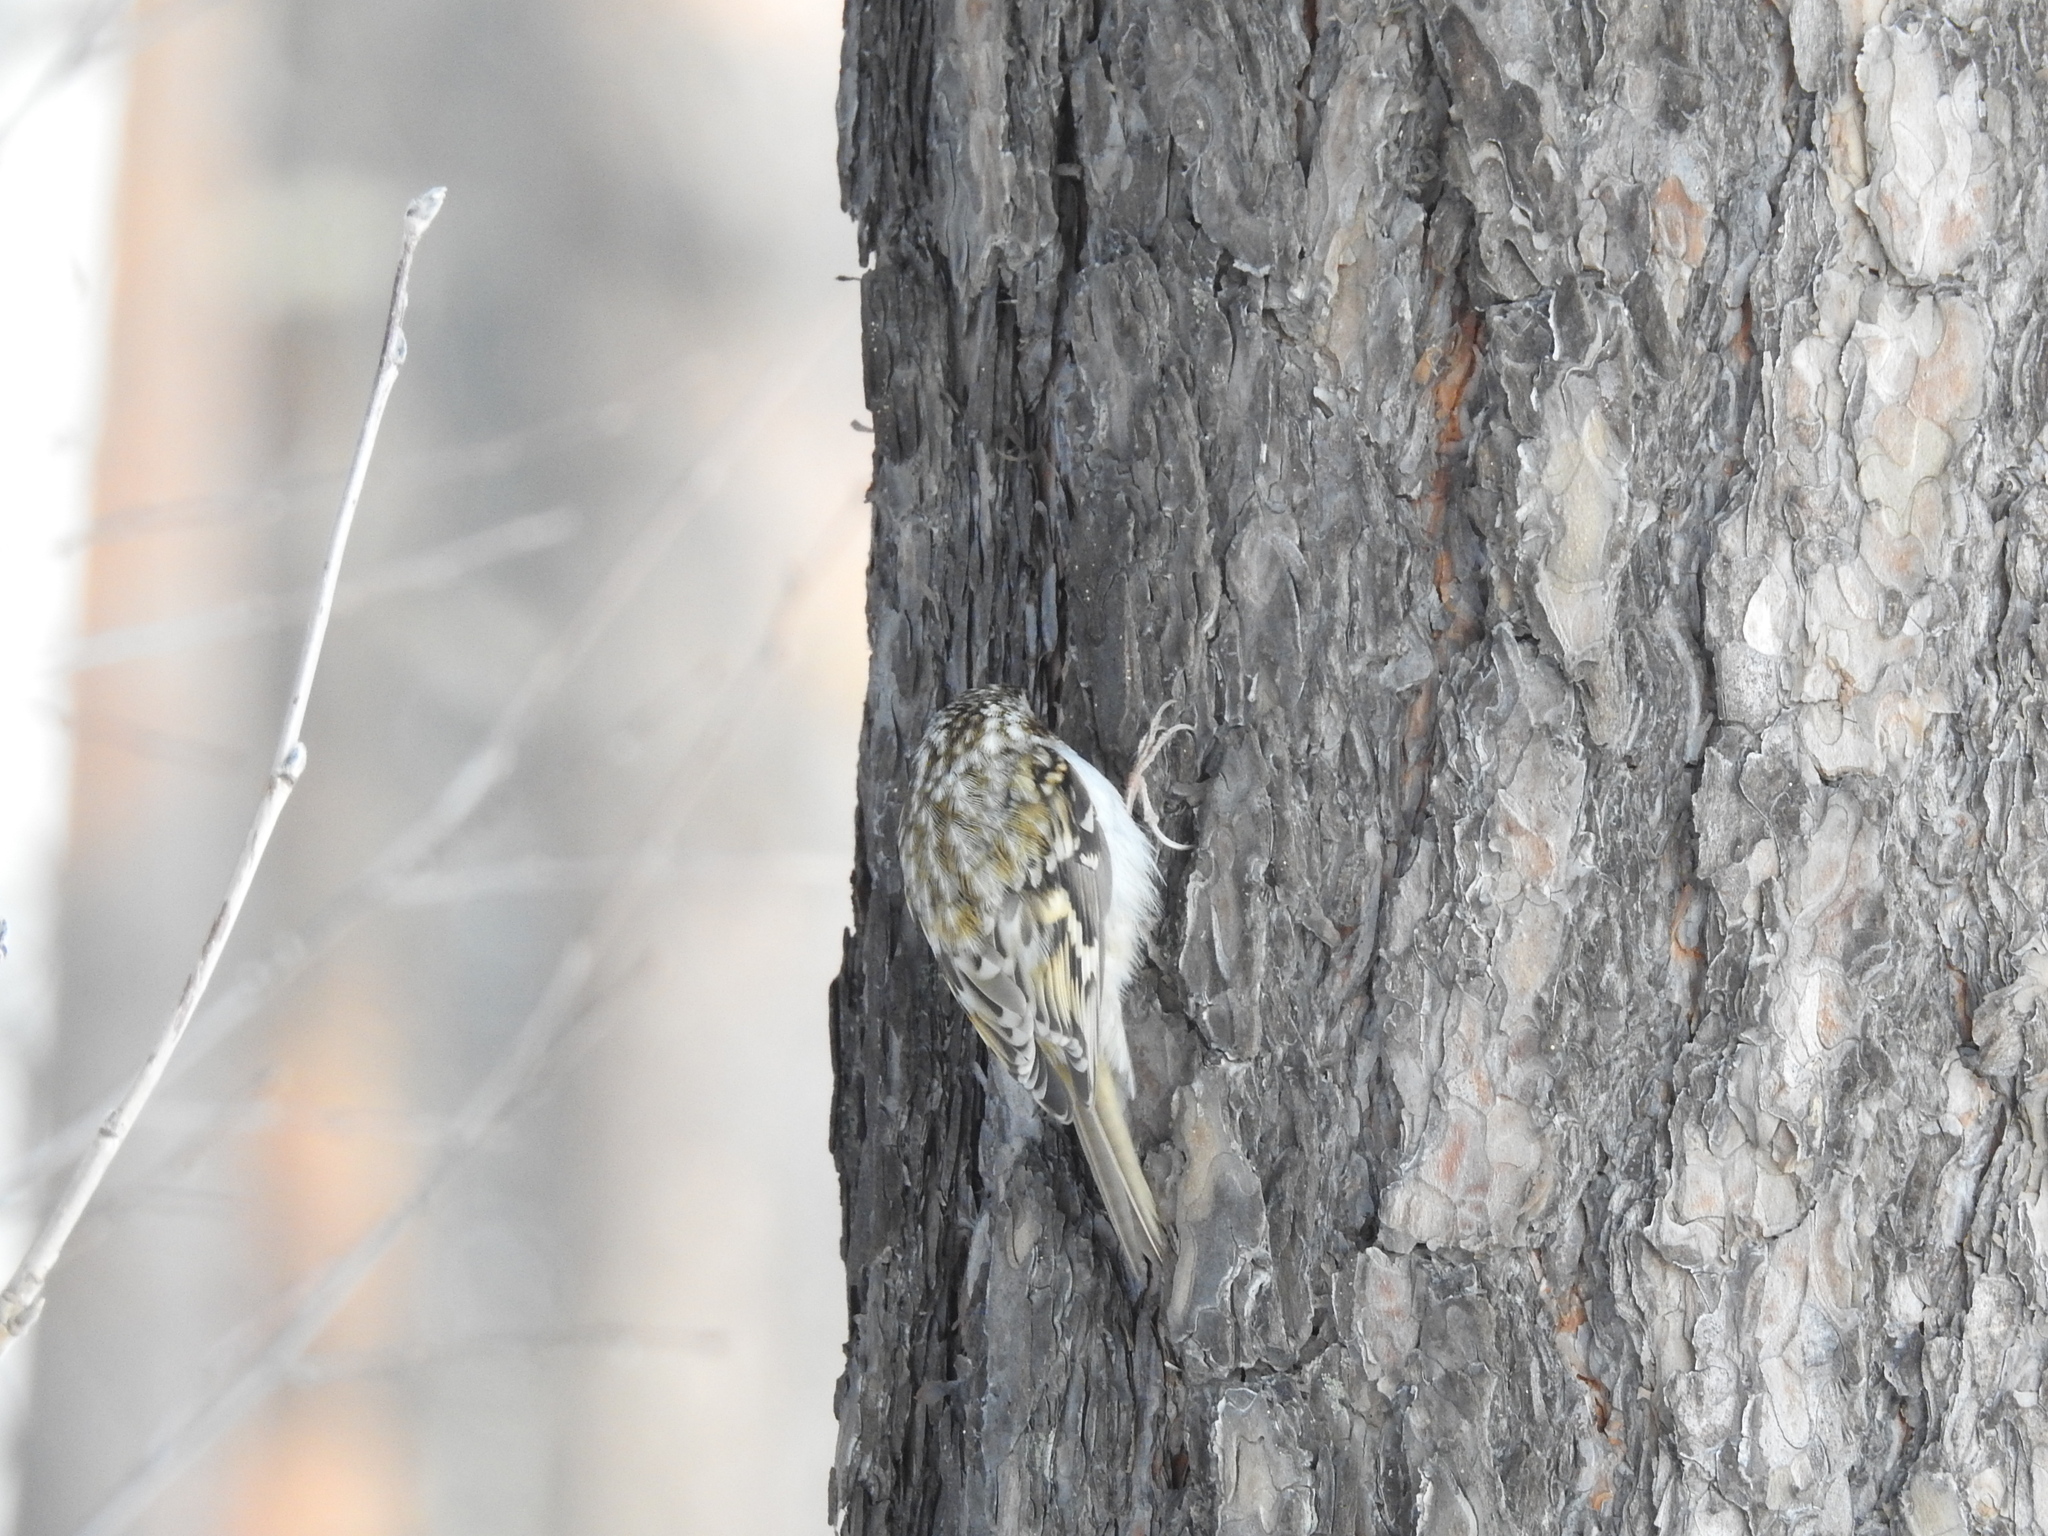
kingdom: Animalia
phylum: Chordata
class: Aves
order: Passeriformes
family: Certhiidae
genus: Certhia
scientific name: Certhia familiaris
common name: Eurasian treecreeper
